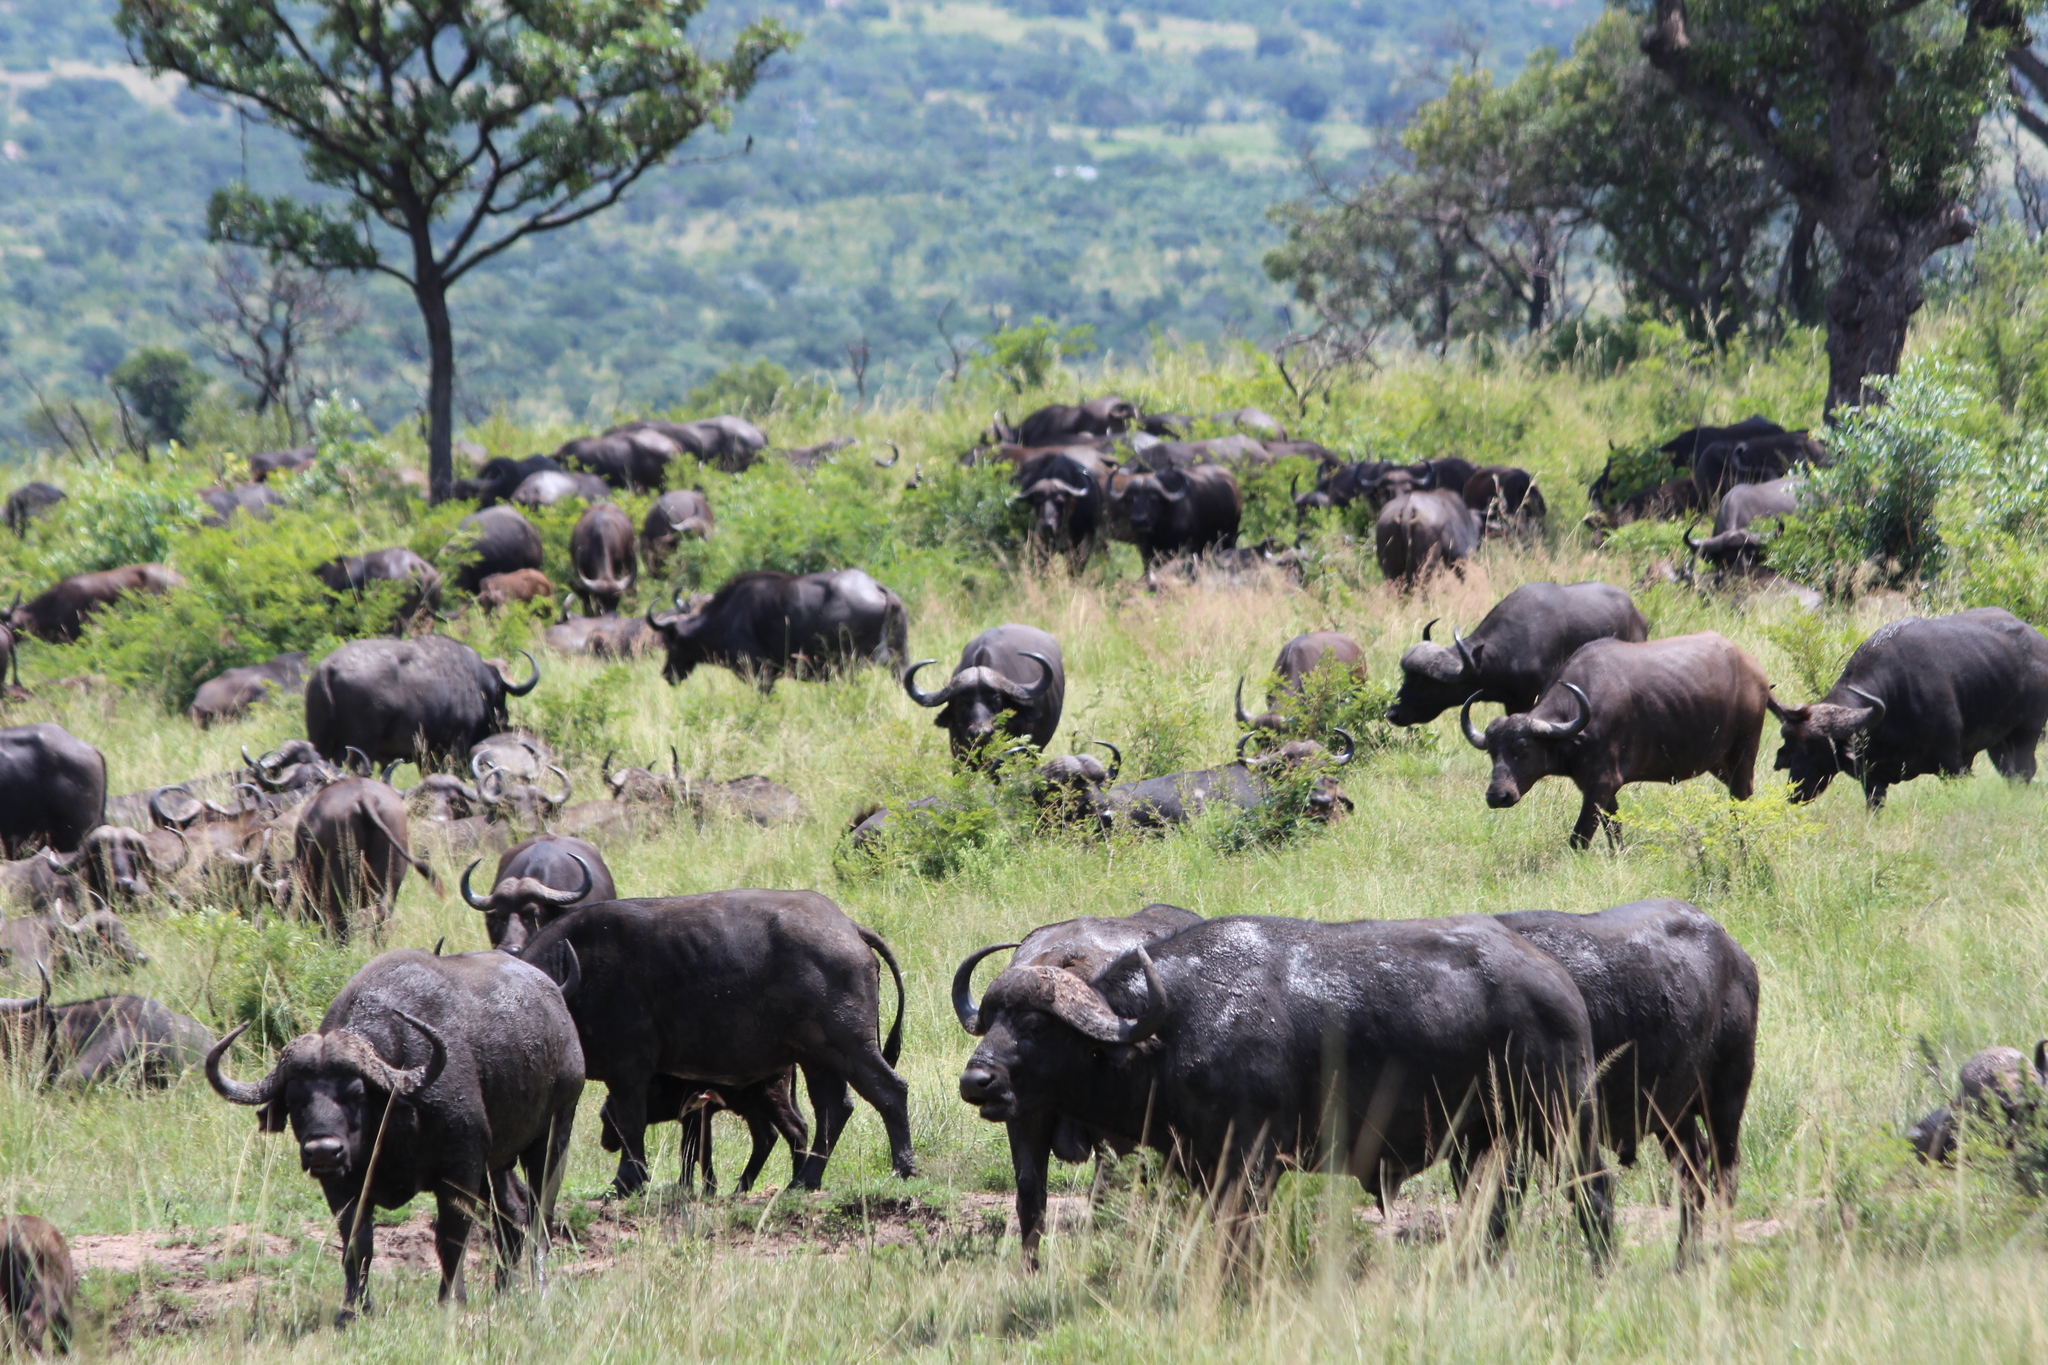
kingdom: Animalia
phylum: Chordata
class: Mammalia
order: Artiodactyla
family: Bovidae
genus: Syncerus
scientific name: Syncerus caffer
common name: African buffalo
